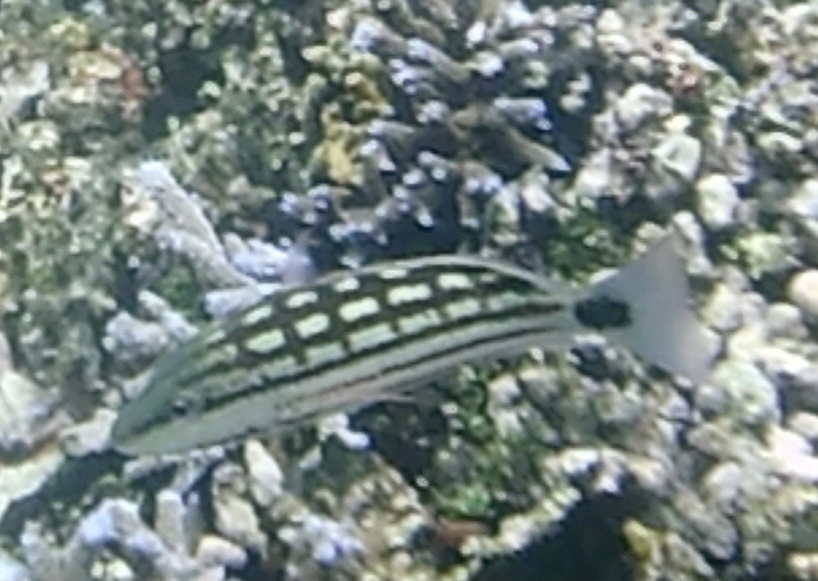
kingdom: Animalia
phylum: Chordata
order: Perciformes
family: Lutjanidae
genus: Lutjanus
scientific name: Lutjanus decussatus
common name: Checkered snapper
